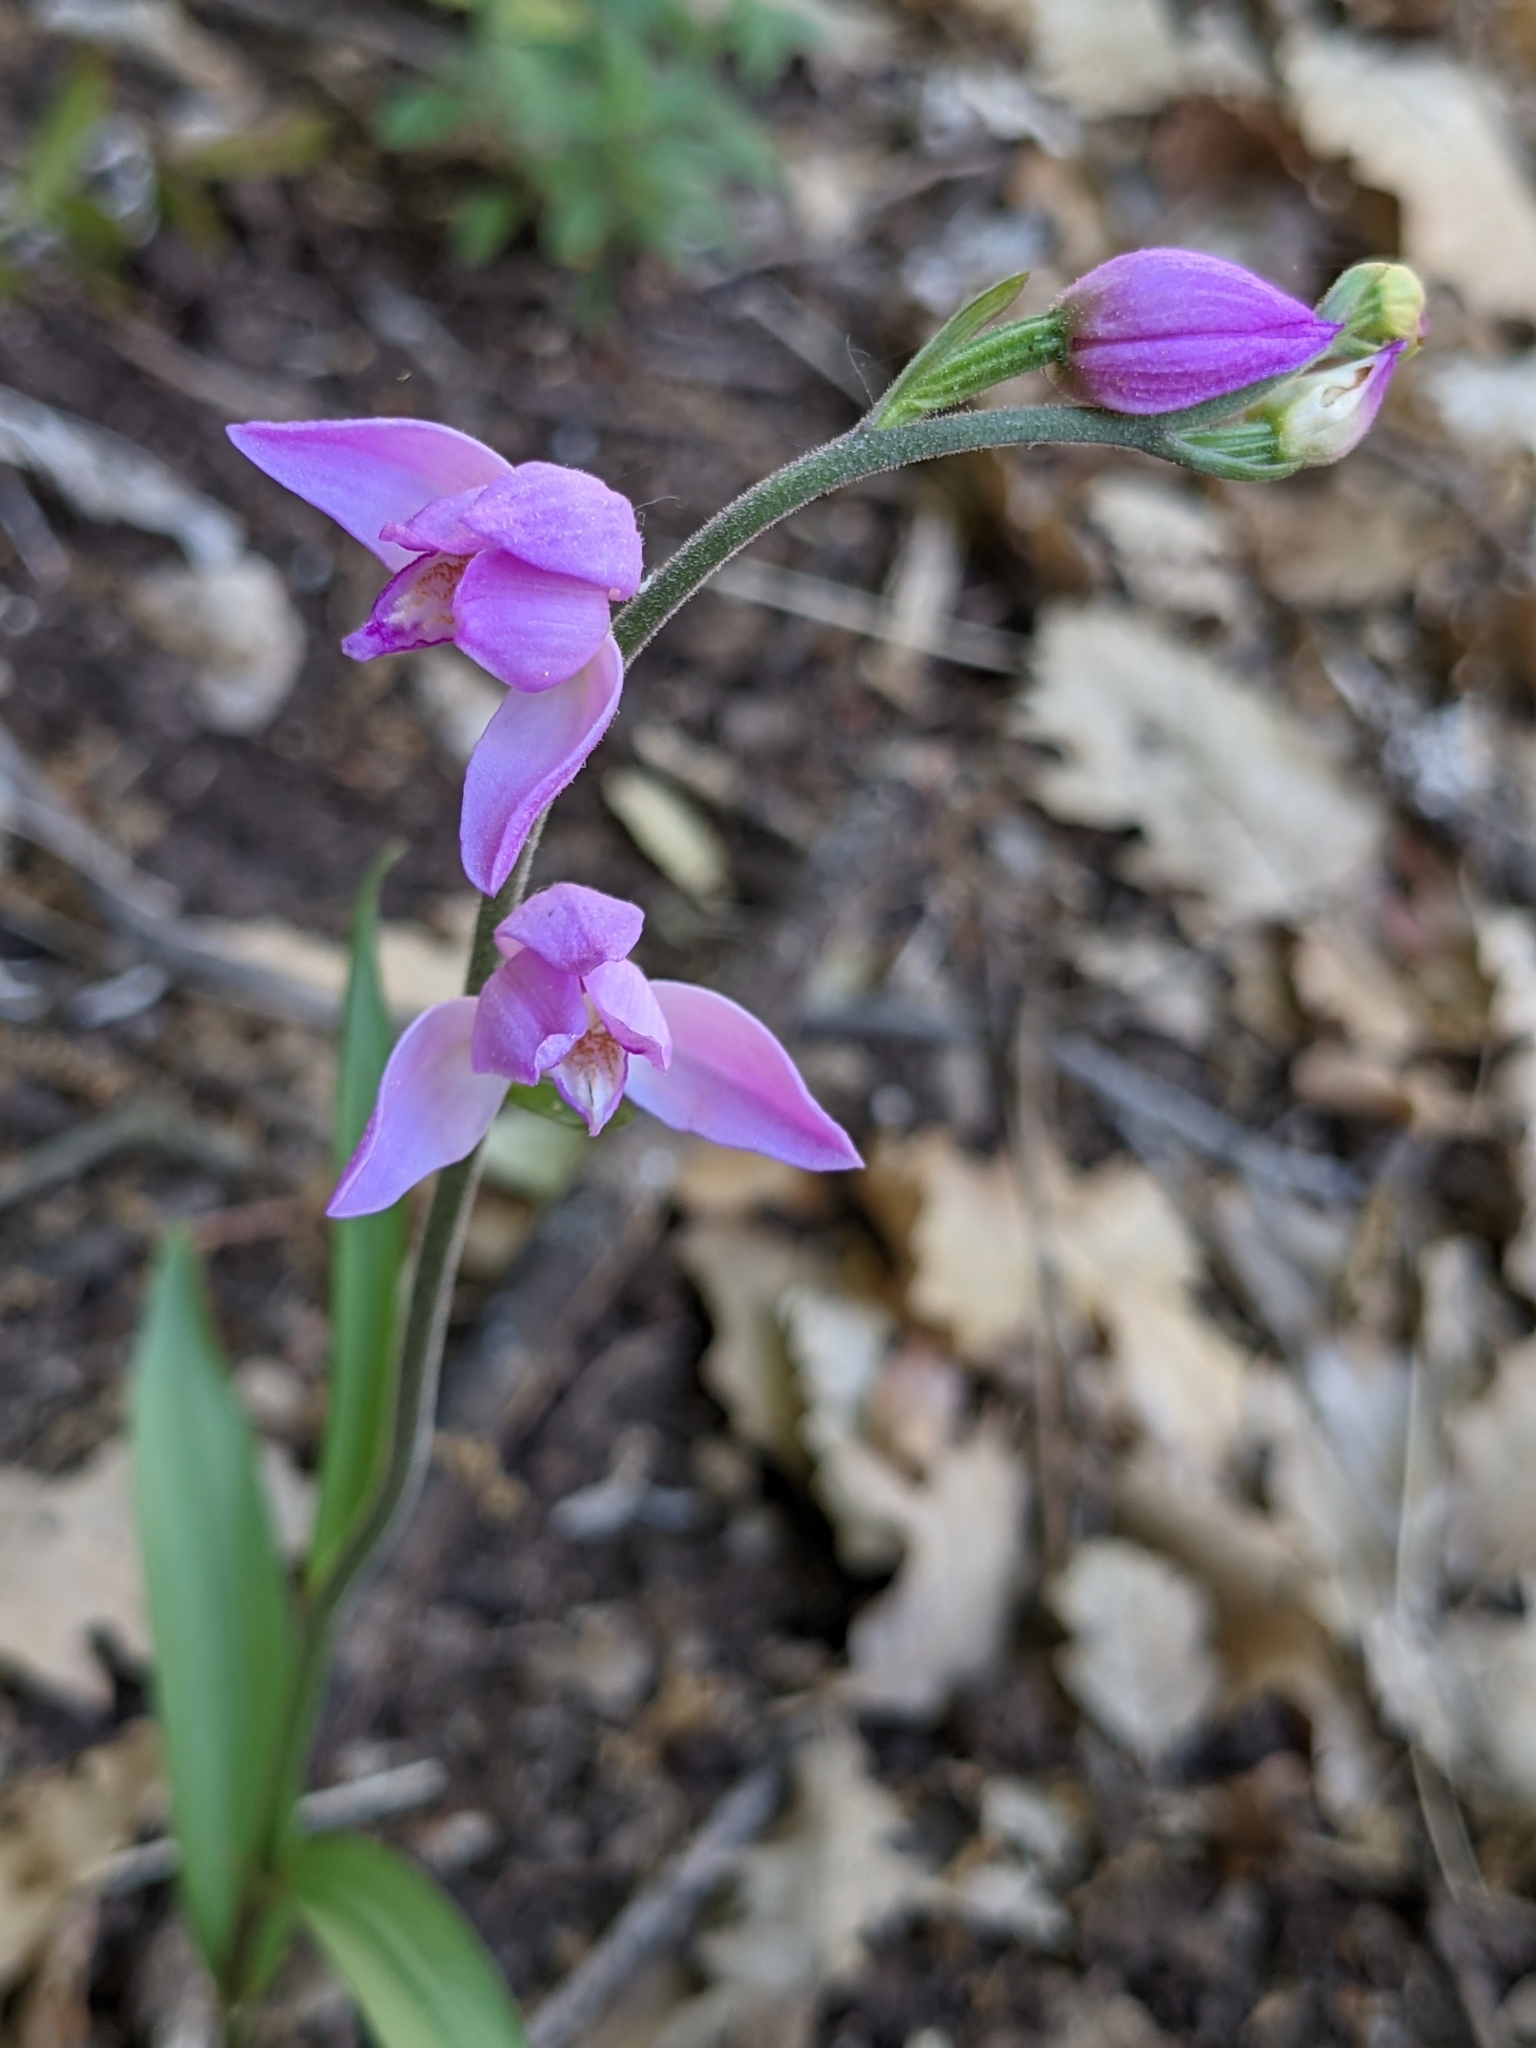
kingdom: Plantae
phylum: Tracheophyta
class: Liliopsida
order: Asparagales
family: Orchidaceae
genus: Cephalanthera
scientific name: Cephalanthera rubra
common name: Red helleborine
